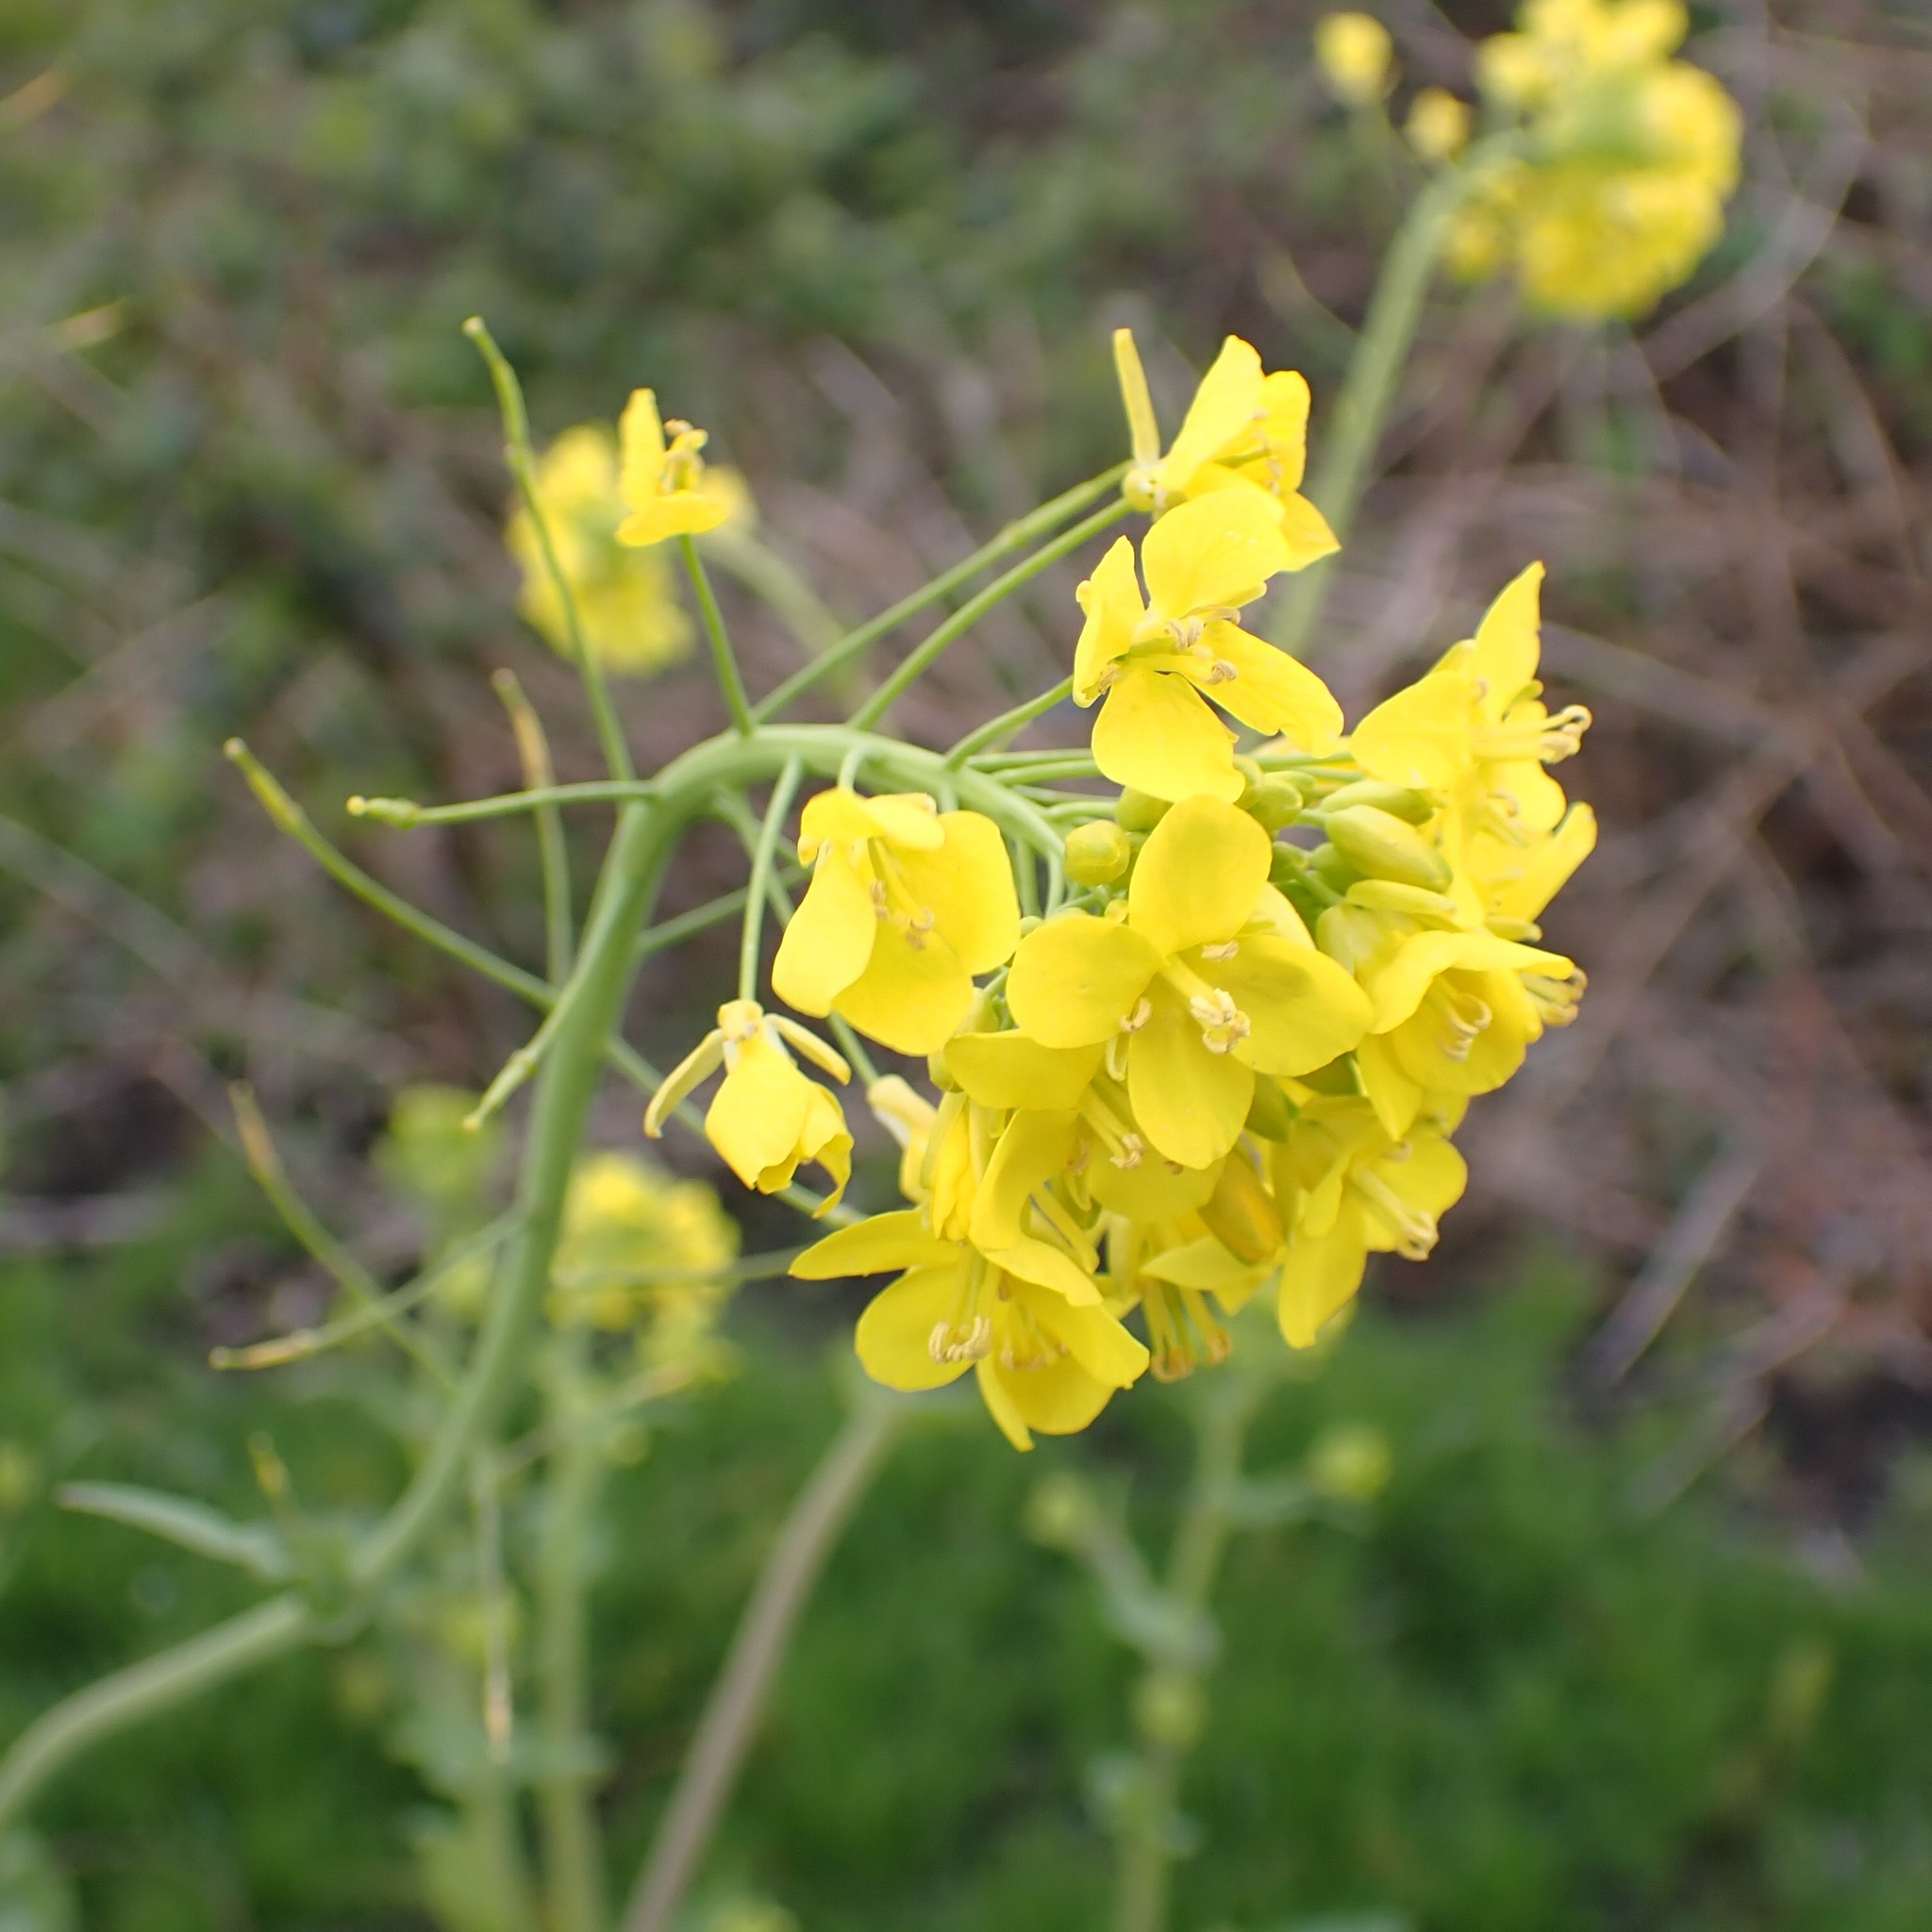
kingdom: Plantae
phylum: Tracheophyta
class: Magnoliopsida
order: Brassicales
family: Brassicaceae
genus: Brassica
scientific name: Brassica rapa
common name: Field mustard
